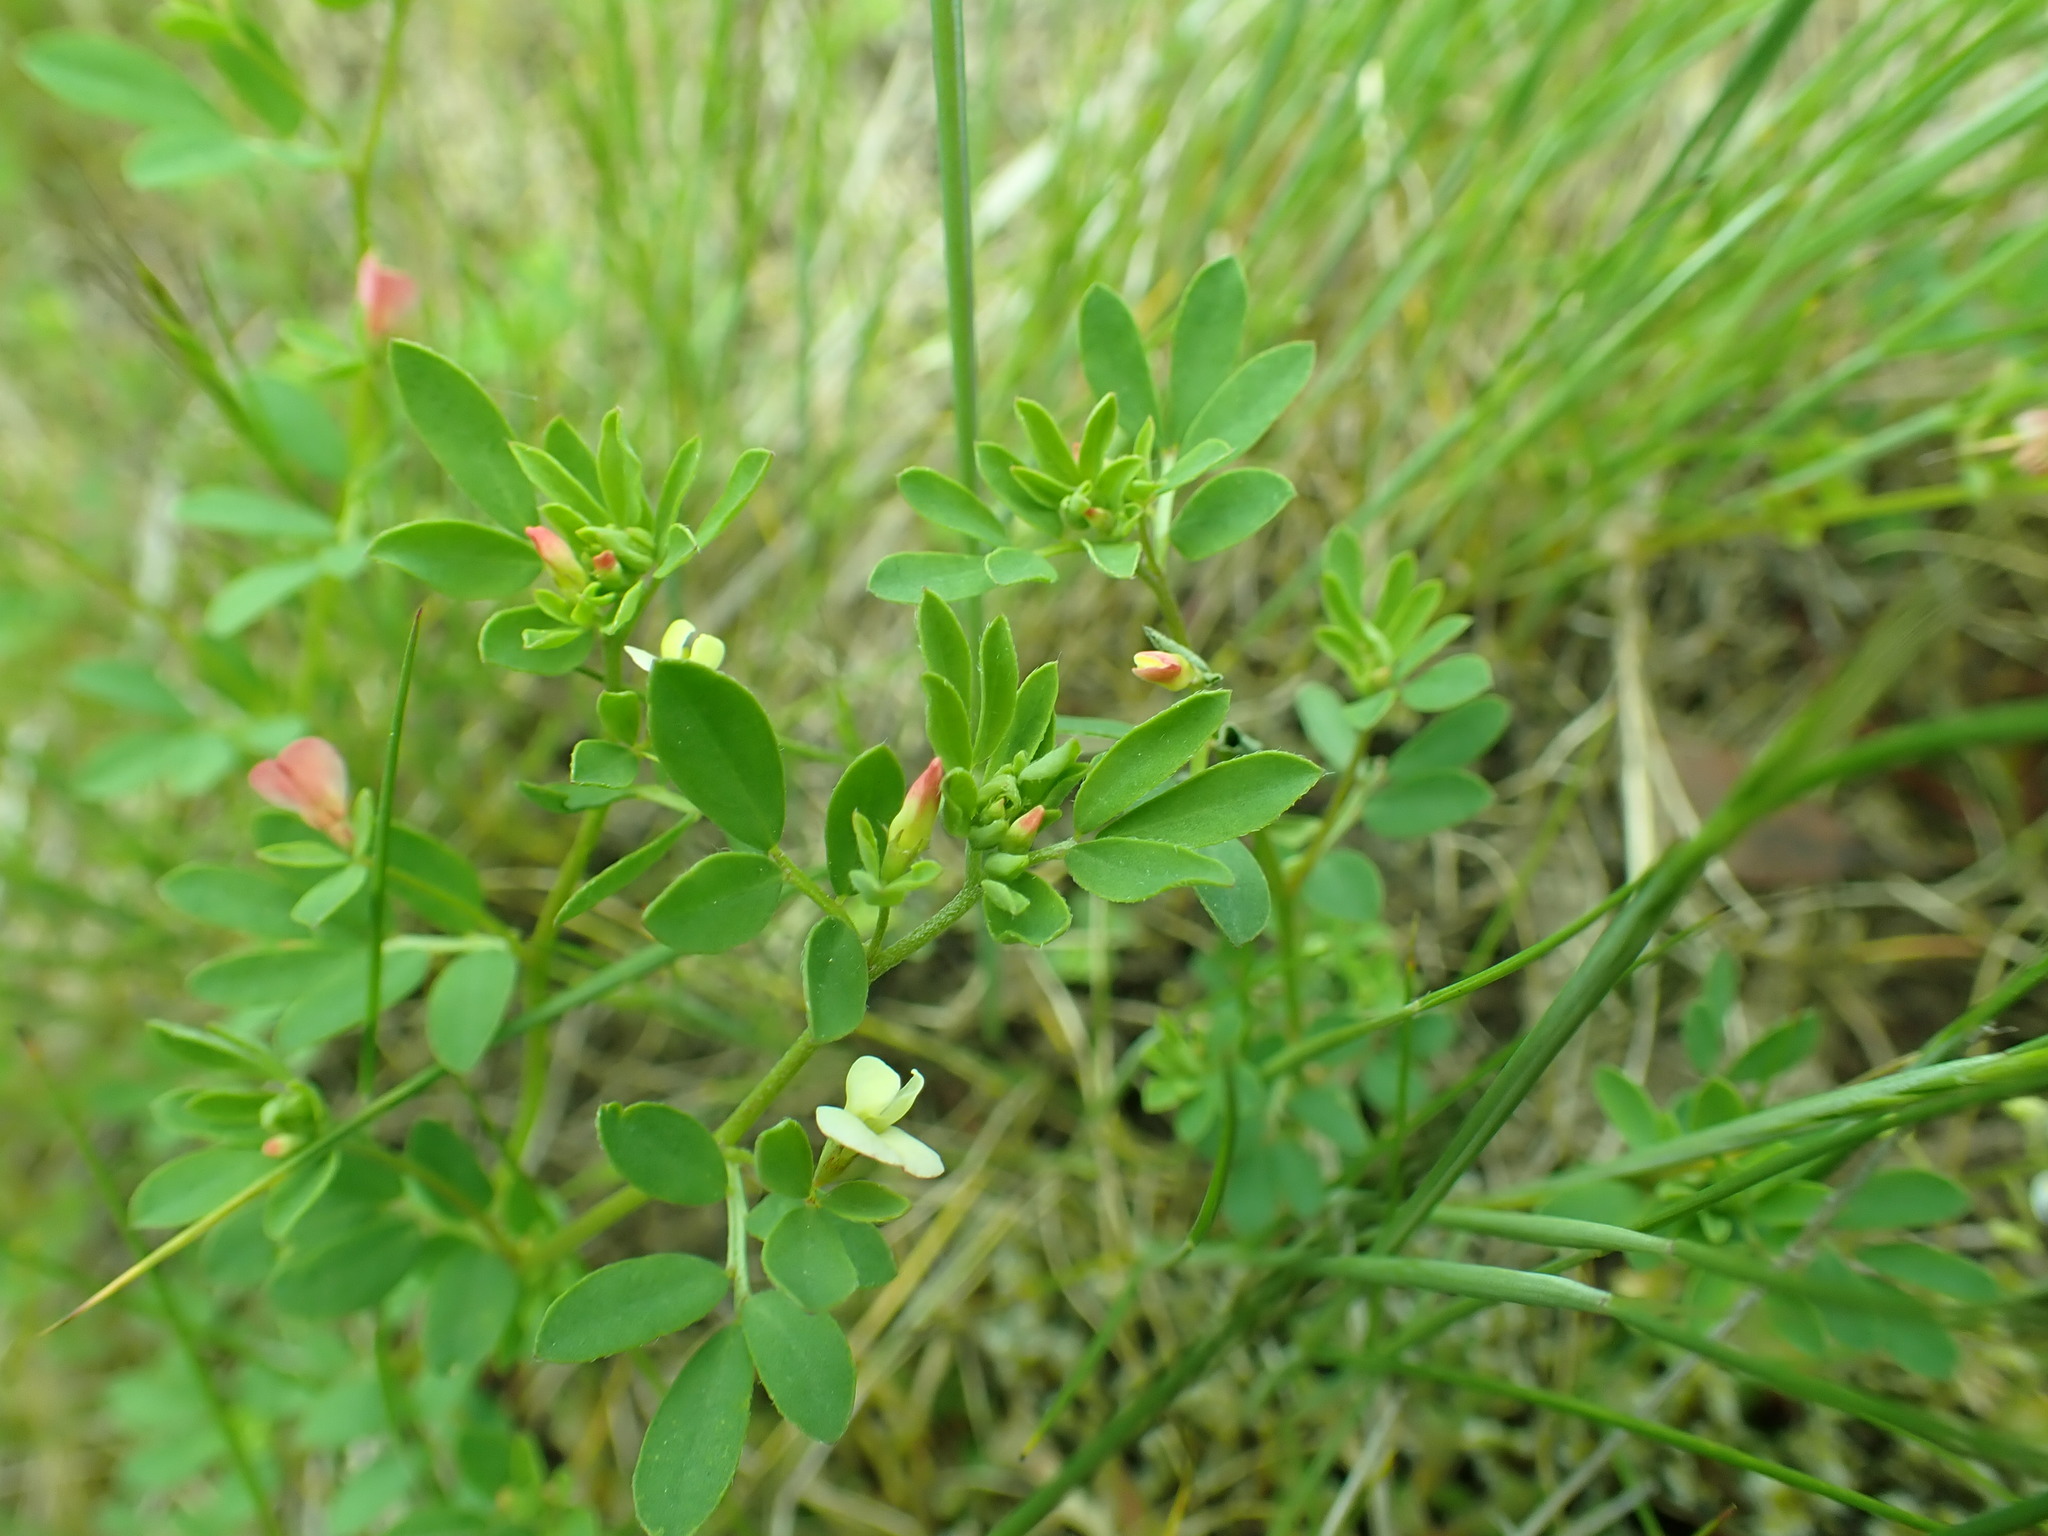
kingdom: Plantae
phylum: Tracheophyta
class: Magnoliopsida
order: Fabales
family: Fabaceae
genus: Acmispon
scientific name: Acmispon parviflorus
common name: Desert deer-vetch
